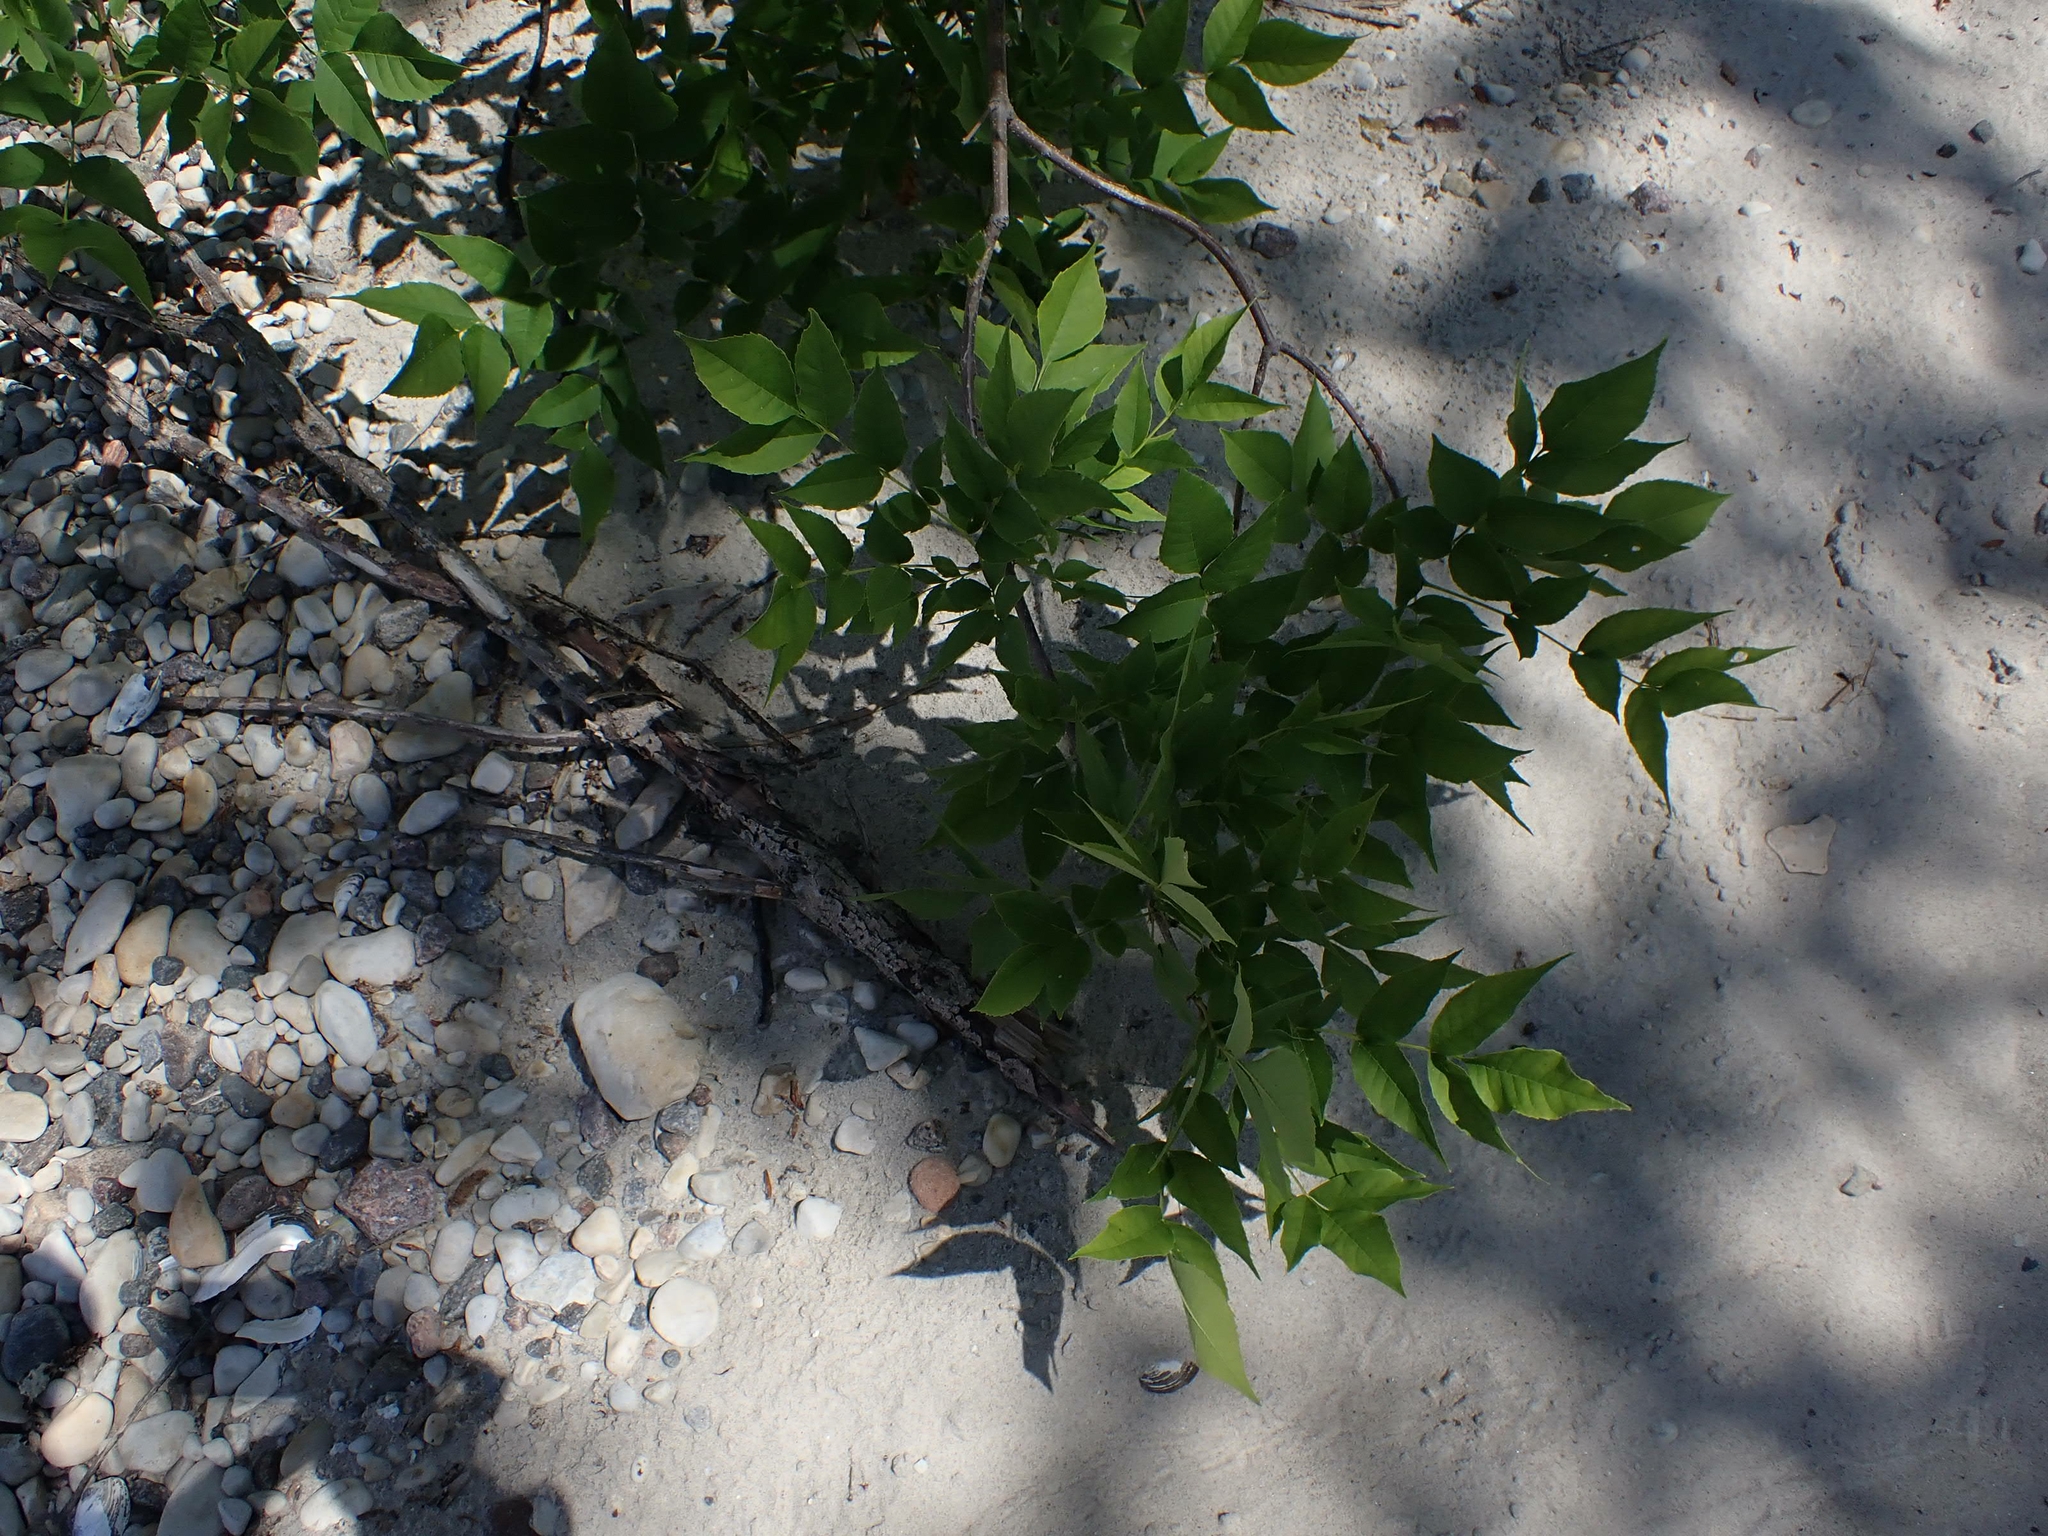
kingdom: Plantae
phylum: Tracheophyta
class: Magnoliopsida
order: Lamiales
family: Oleaceae
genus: Fraxinus
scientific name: Fraxinus pennsylvanica
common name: Green ash
